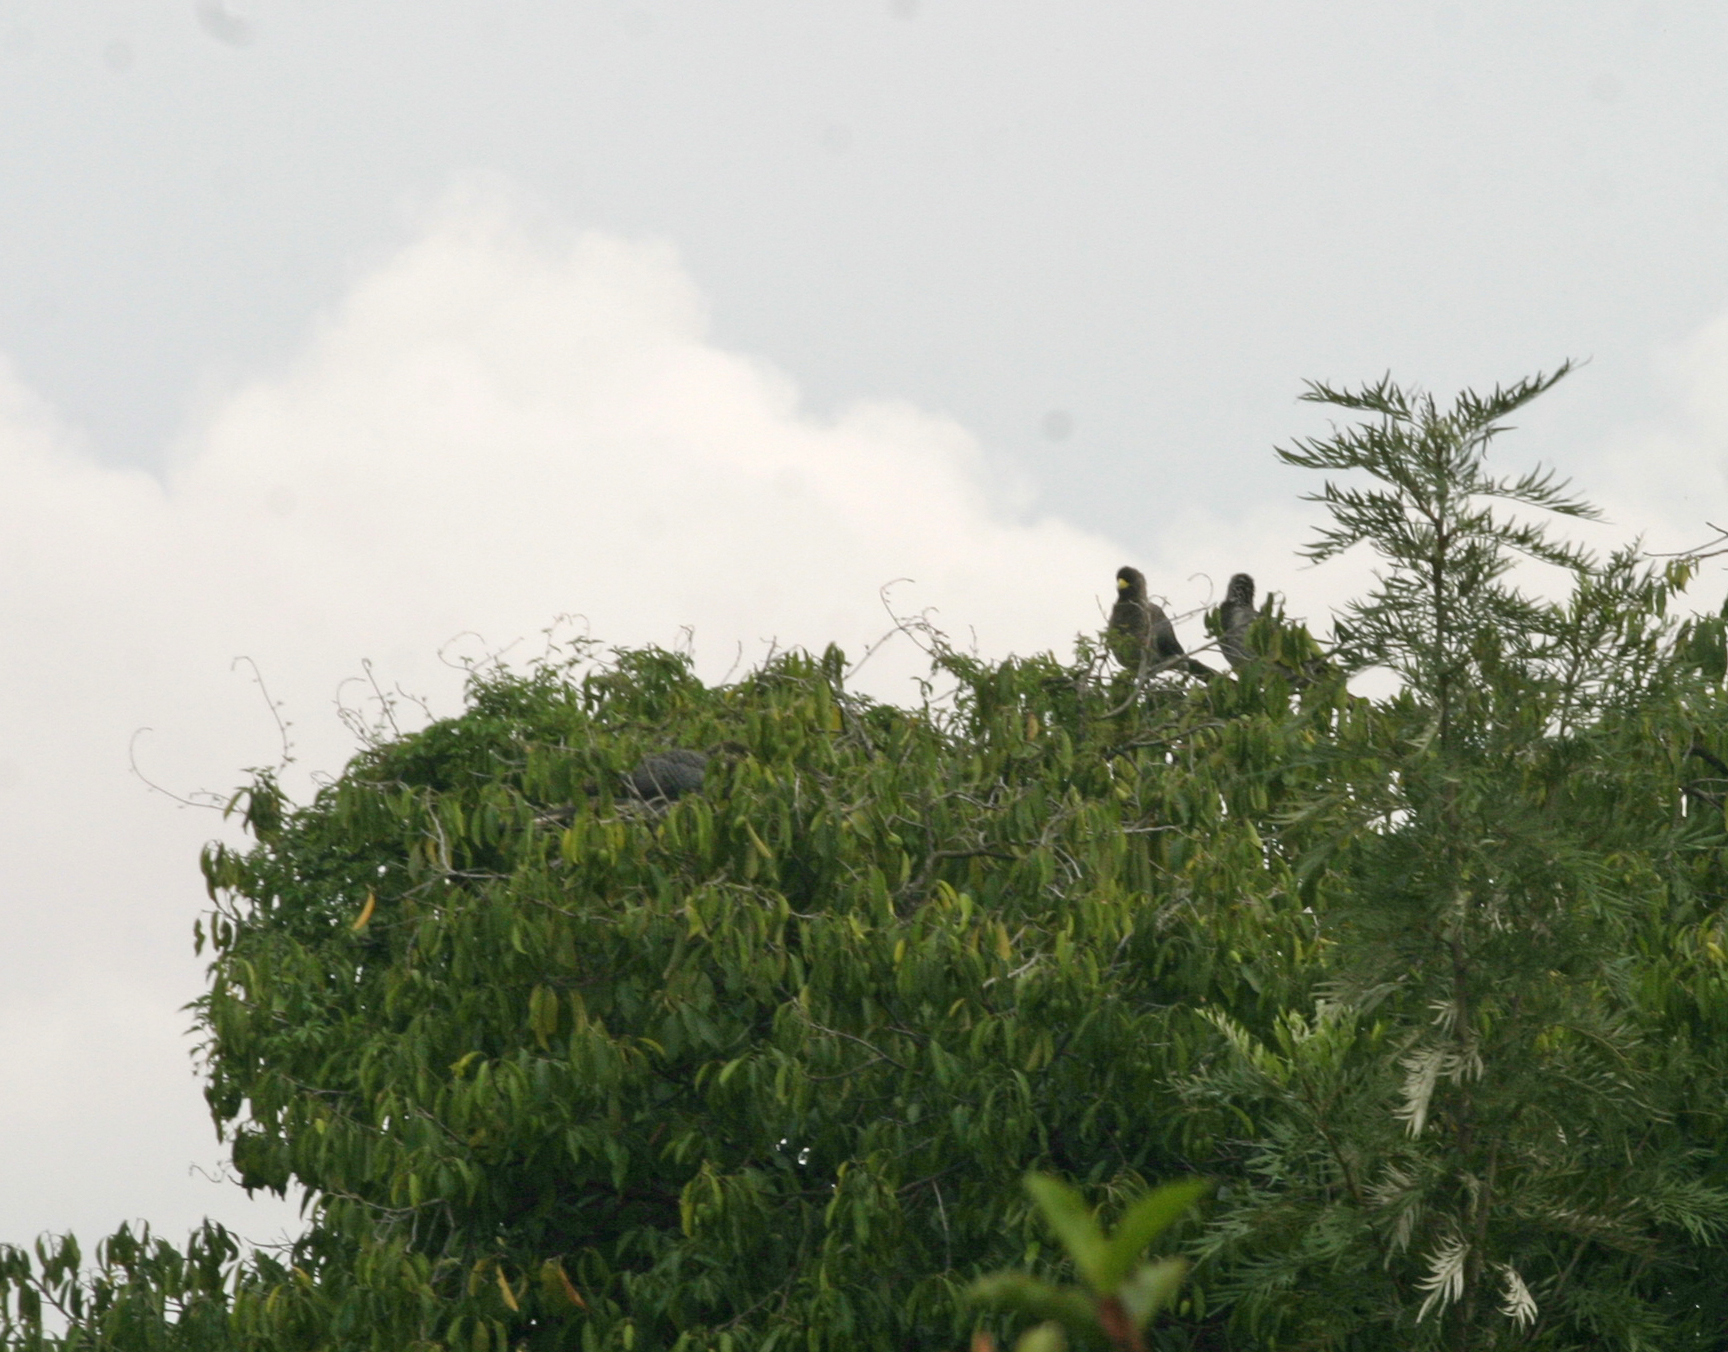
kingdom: Animalia
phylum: Chordata
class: Aves
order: Musophagiformes
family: Musophagidae
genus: Crinifer
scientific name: Crinifer zonurus
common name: Eastern plantain-eater
